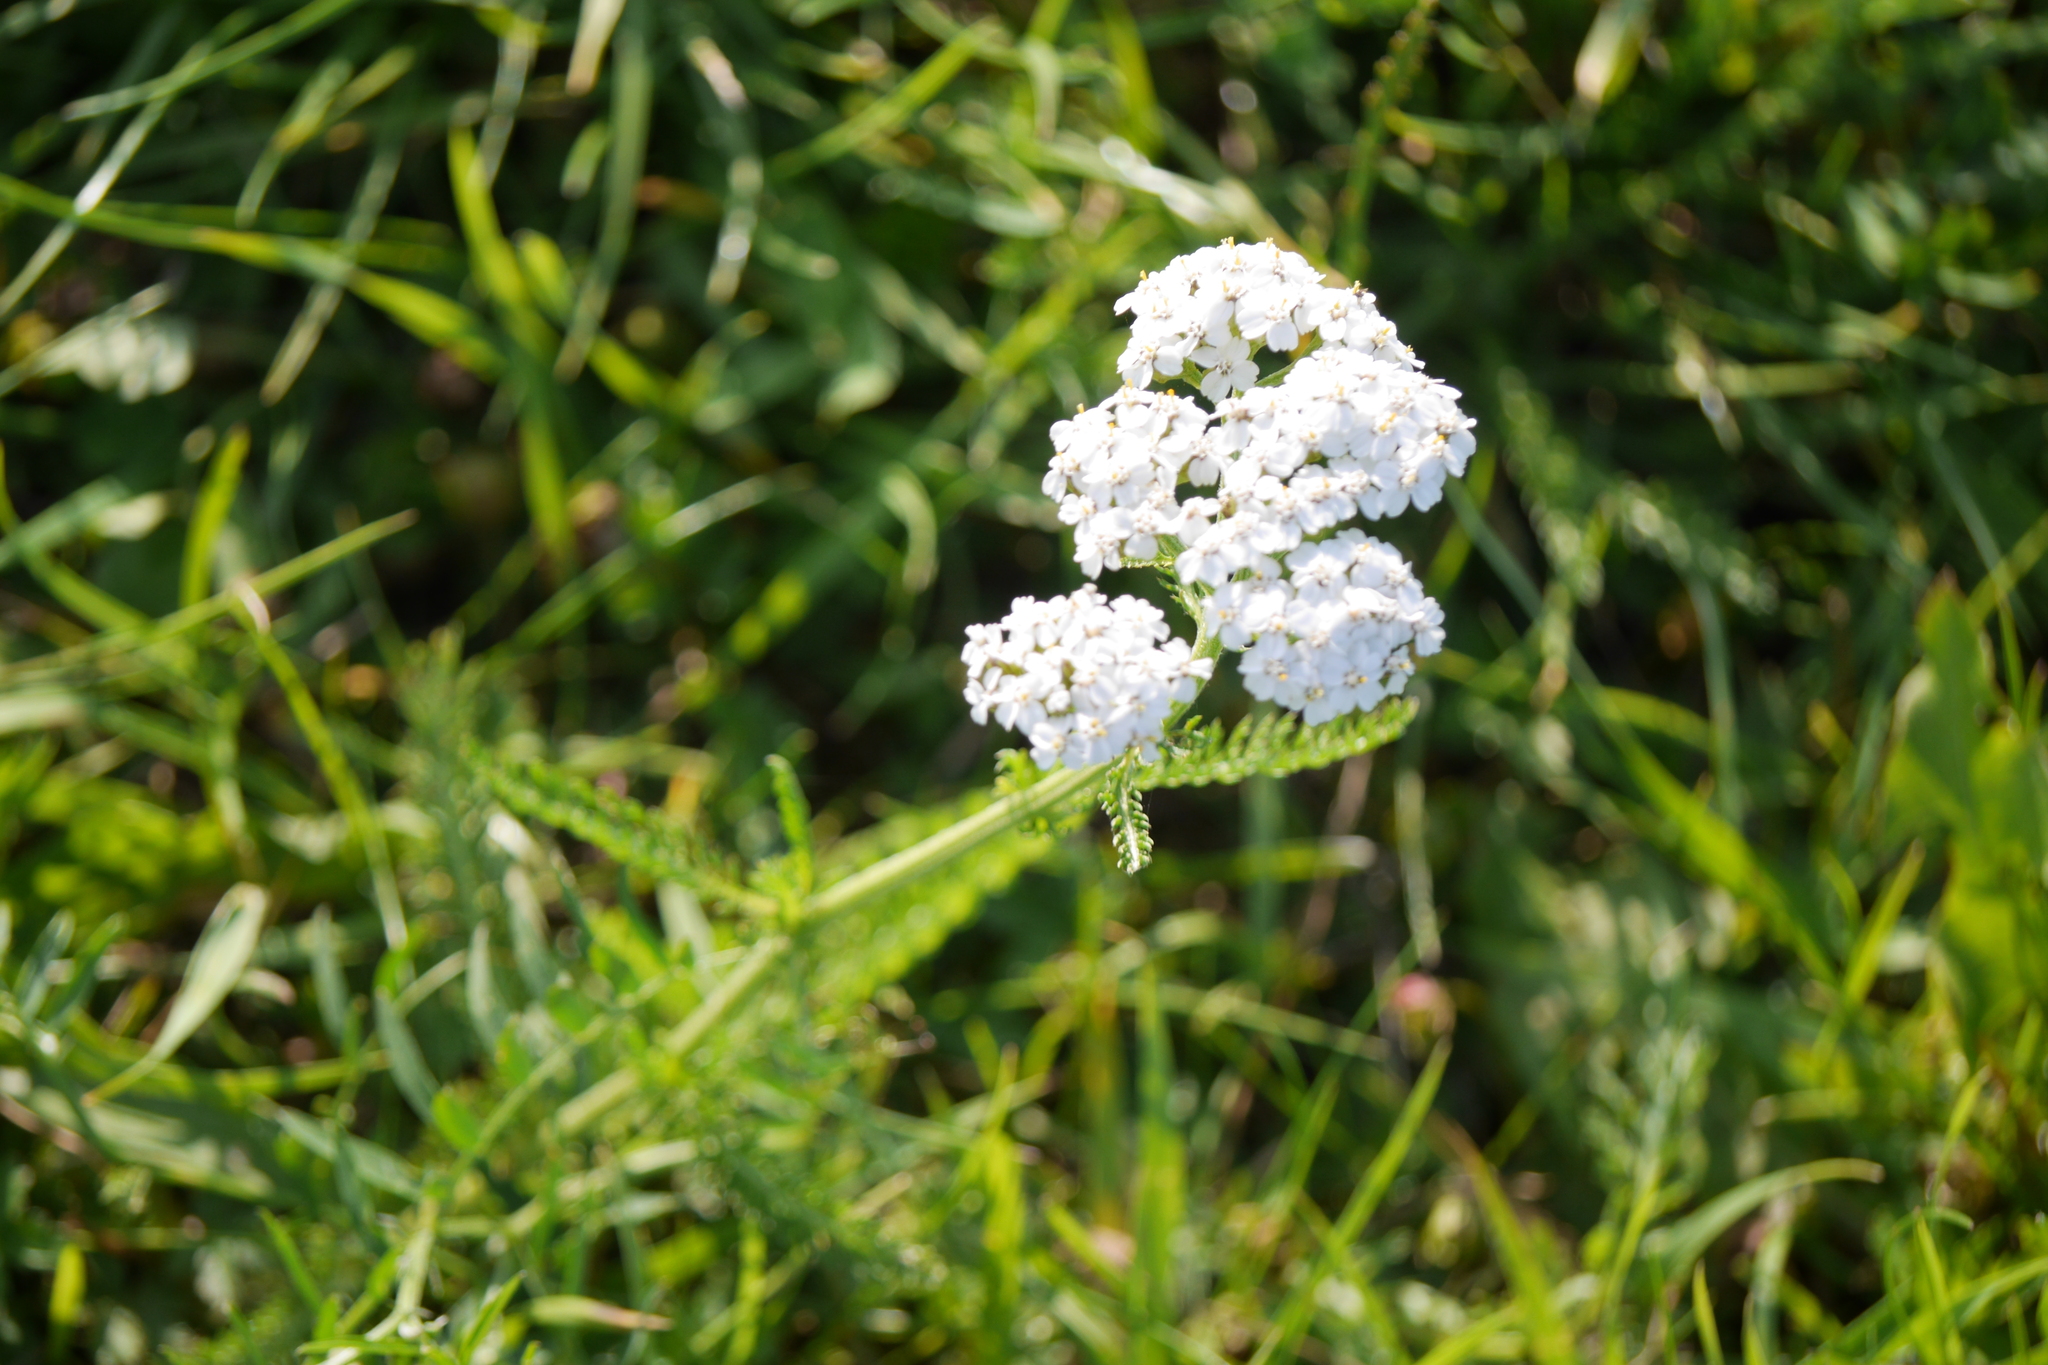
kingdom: Plantae
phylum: Tracheophyta
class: Magnoliopsida
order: Asterales
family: Asteraceae
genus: Achillea
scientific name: Achillea millefolium
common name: Yarrow
